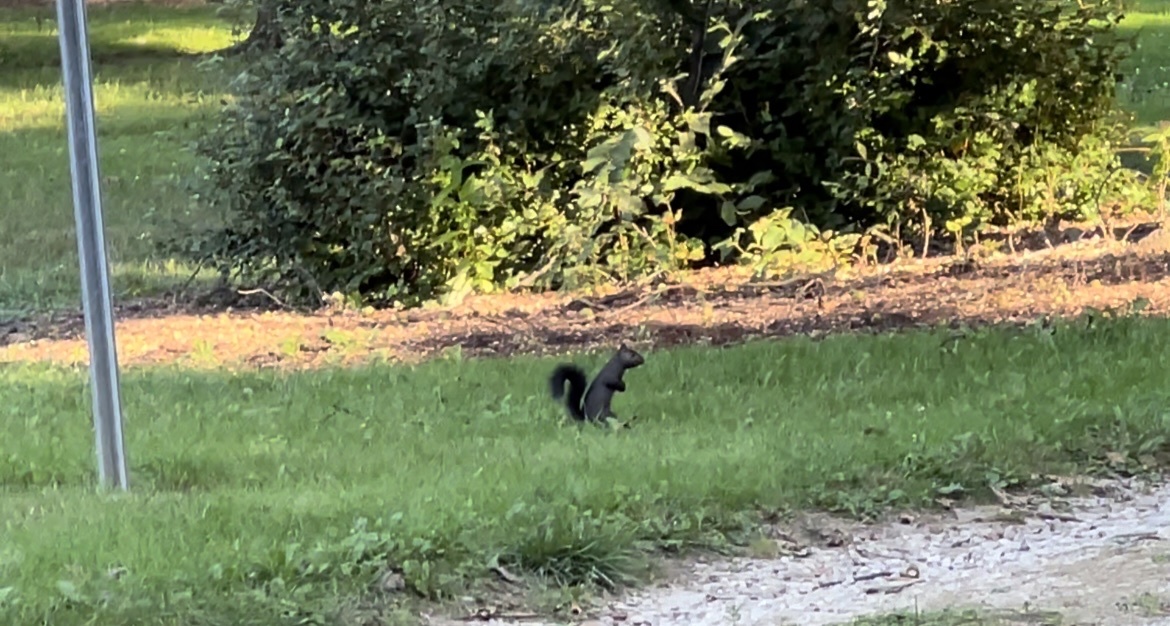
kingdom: Animalia
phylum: Chordata
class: Mammalia
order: Rodentia
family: Sciuridae
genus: Sciurus
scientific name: Sciurus carolinensis
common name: Eastern gray squirrel
